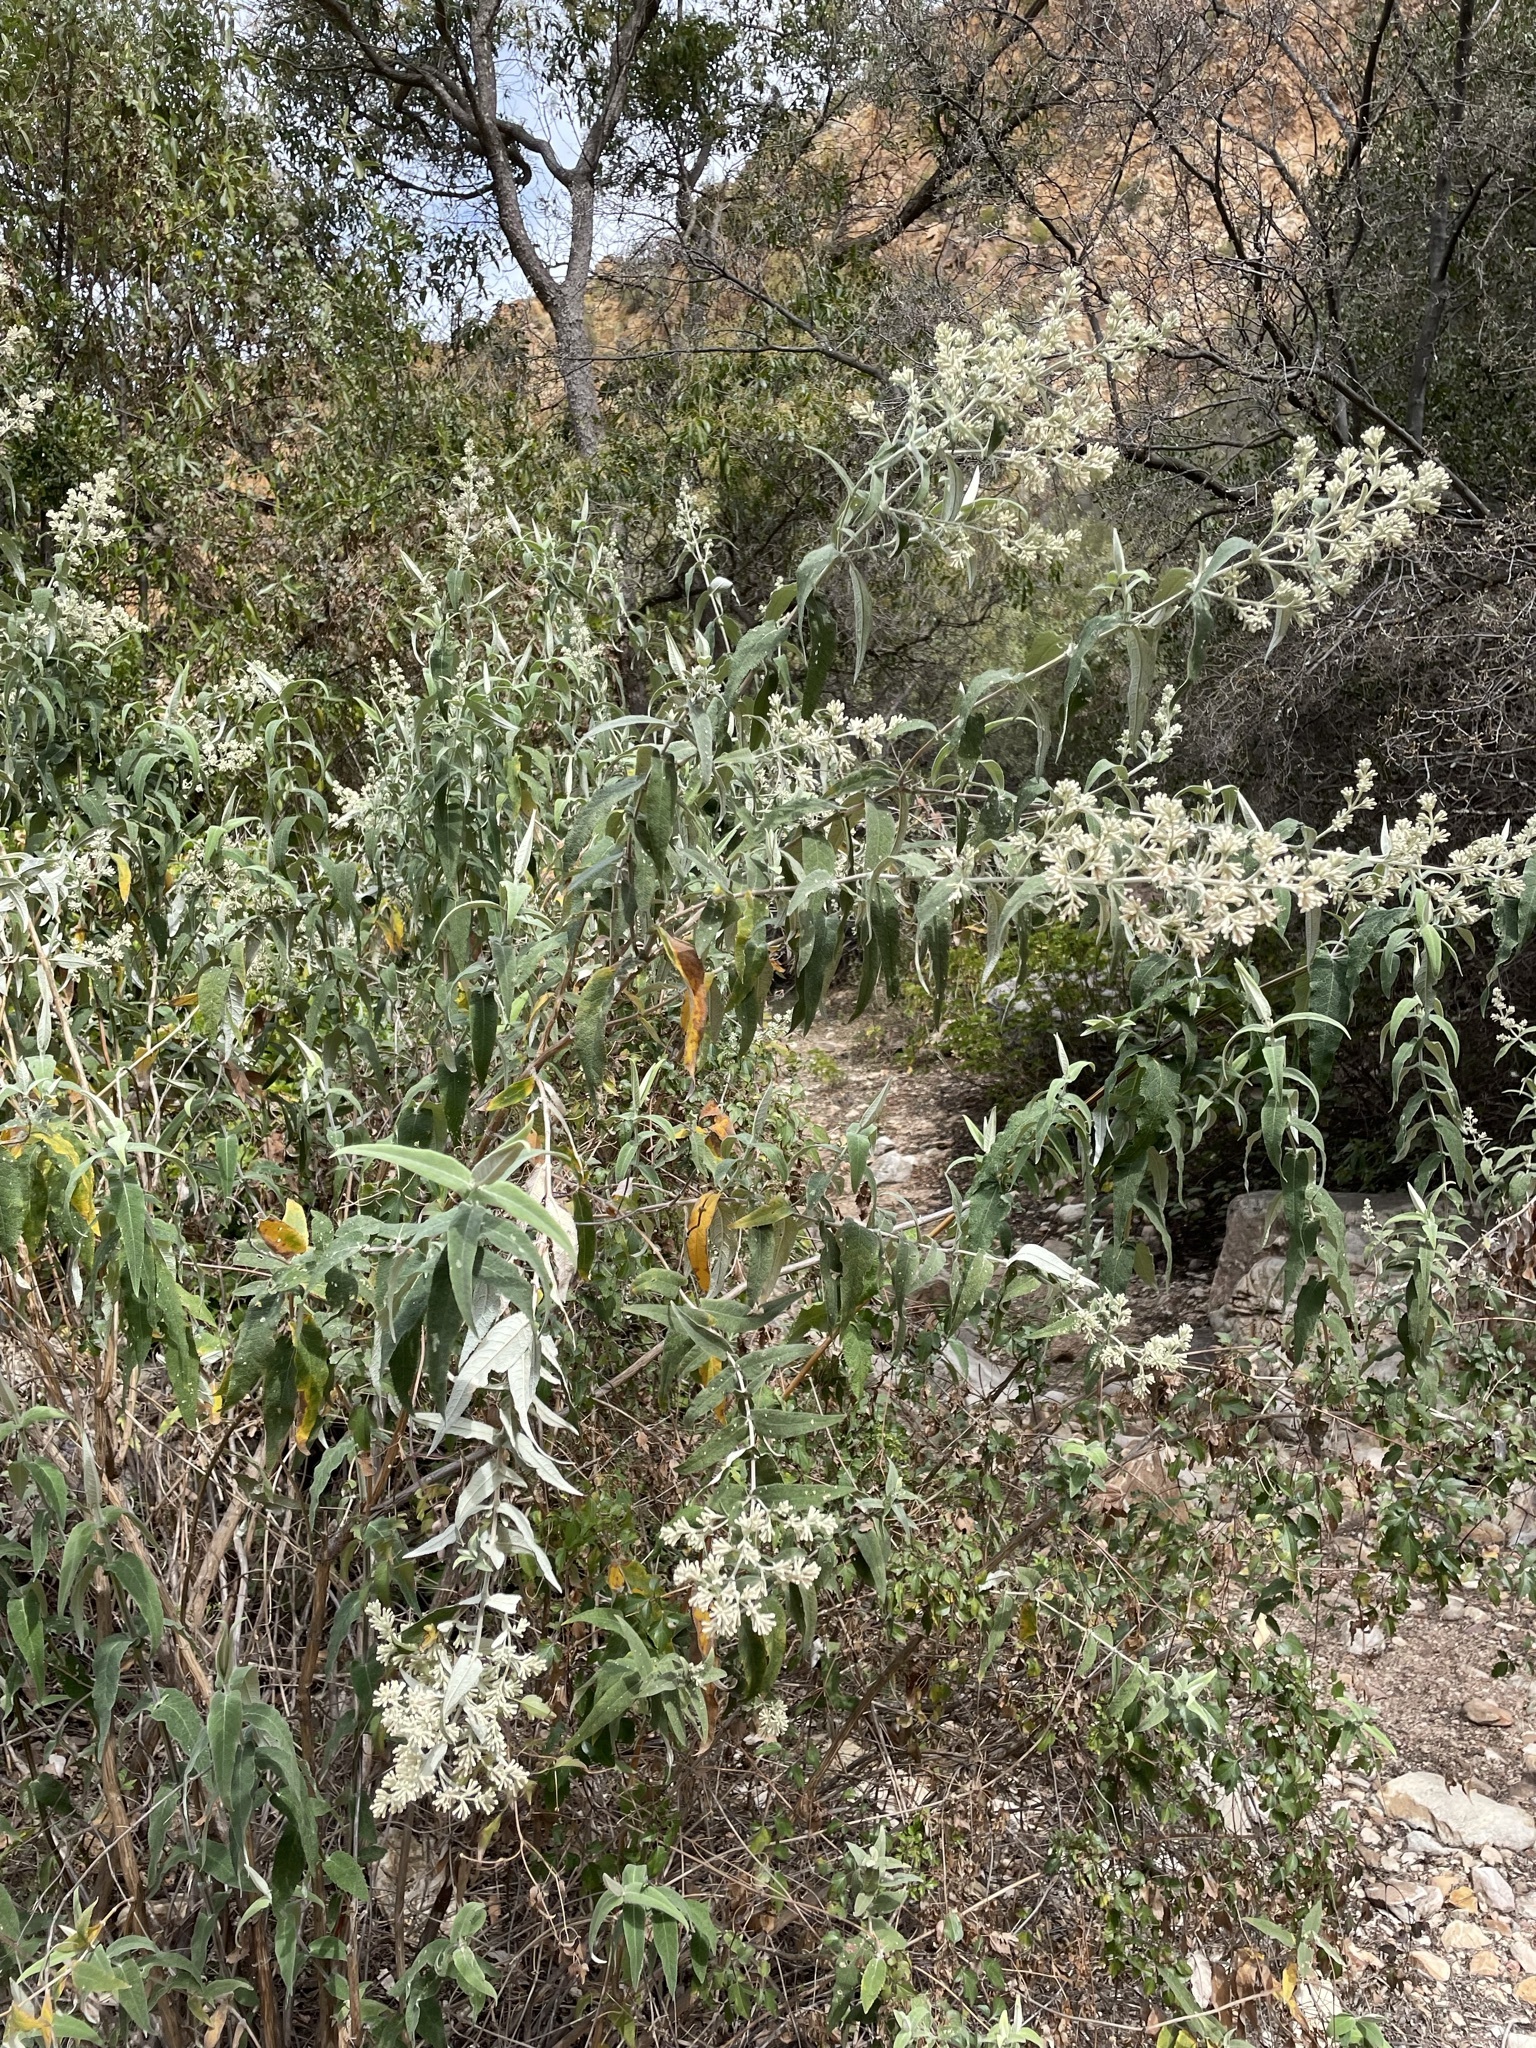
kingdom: Plantae
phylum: Tracheophyta
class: Magnoliopsida
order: Lamiales
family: Scrophulariaceae
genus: Buddleja
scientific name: Buddleja salviifolia
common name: Sagewood
